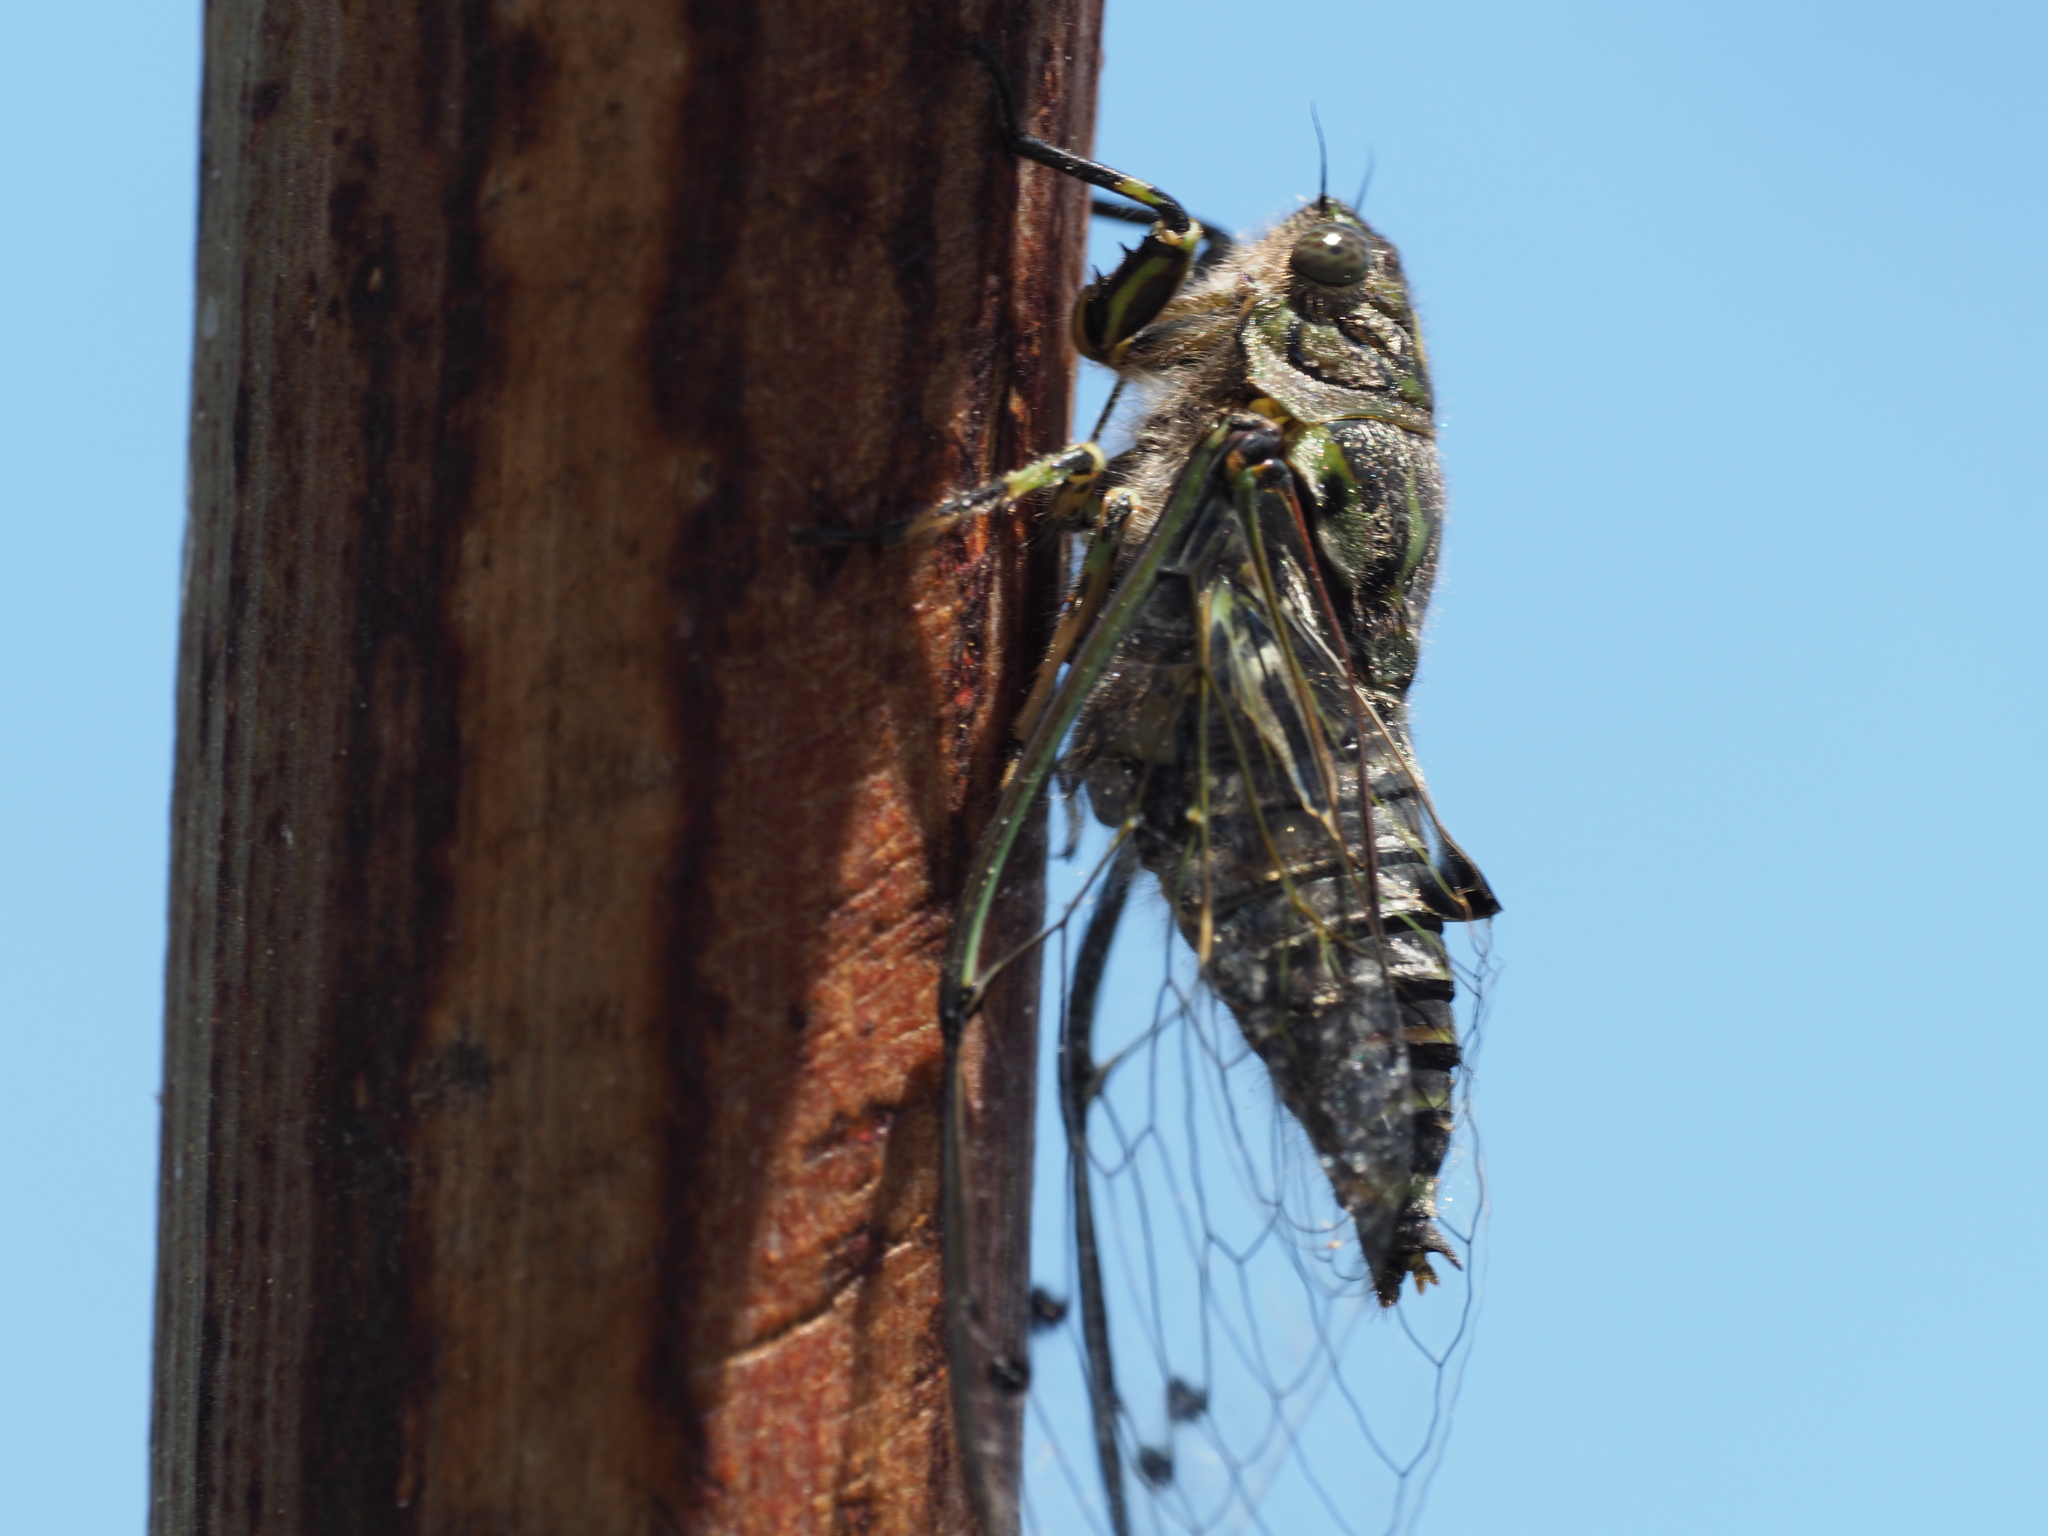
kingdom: Animalia
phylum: Arthropoda
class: Insecta
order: Hemiptera
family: Cicadidae
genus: Amphipsalta
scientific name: Amphipsalta cingulata
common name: Clapping cicada
